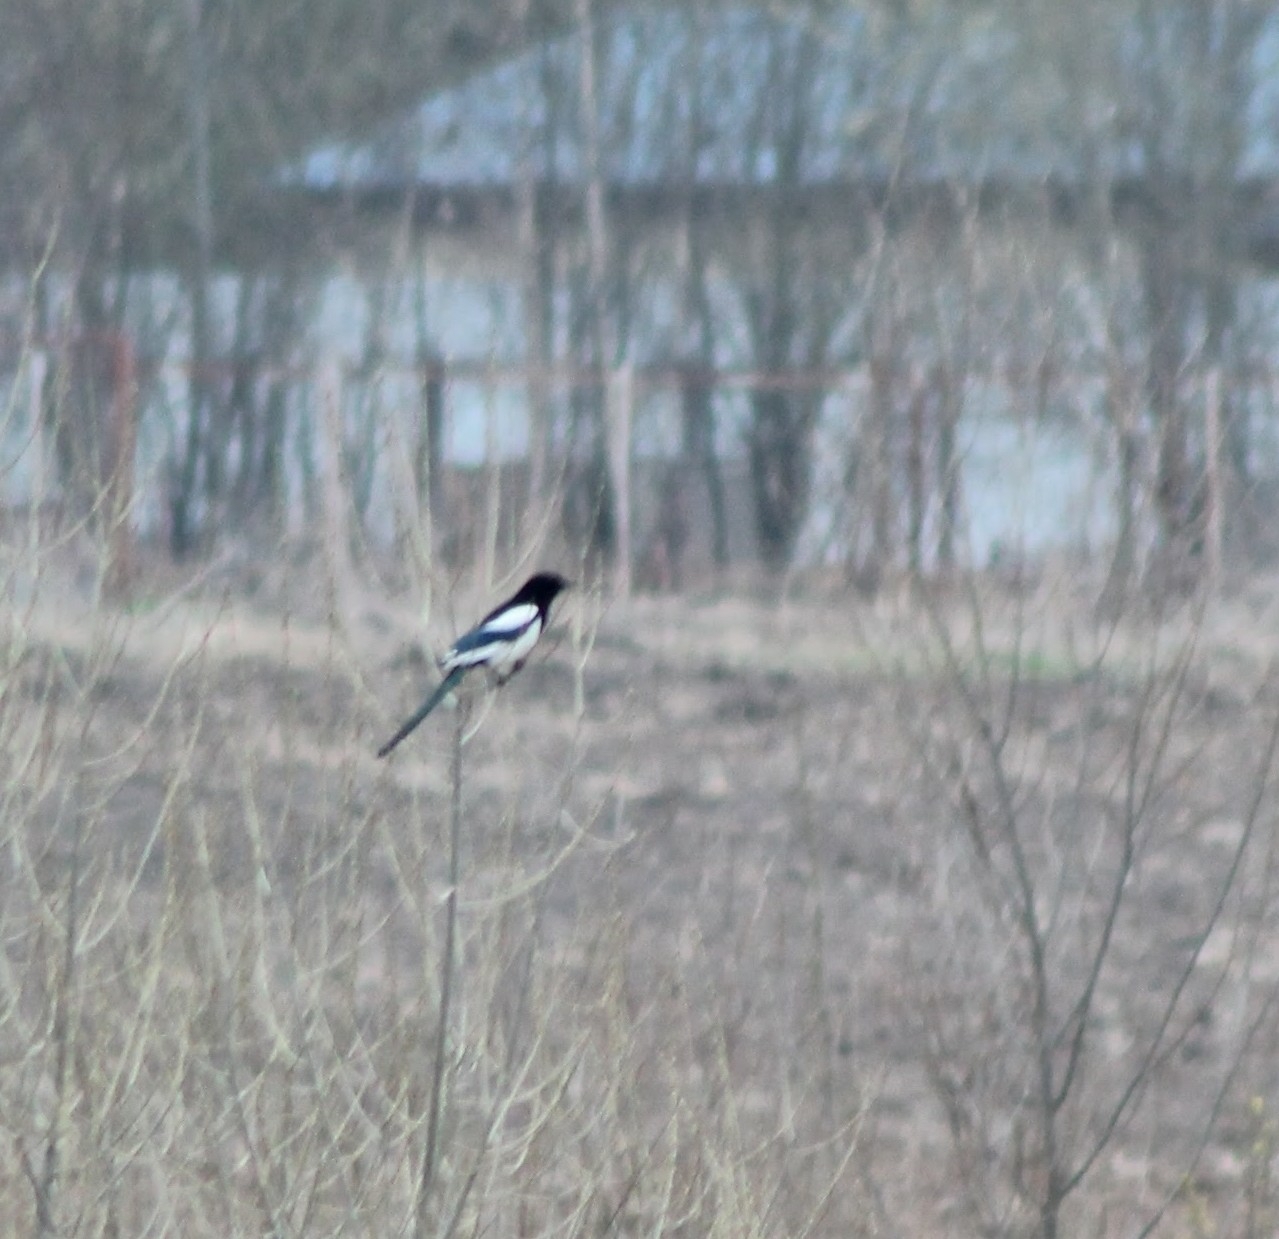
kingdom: Animalia
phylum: Chordata
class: Aves
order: Passeriformes
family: Corvidae
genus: Pica
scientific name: Pica pica
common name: Eurasian magpie
